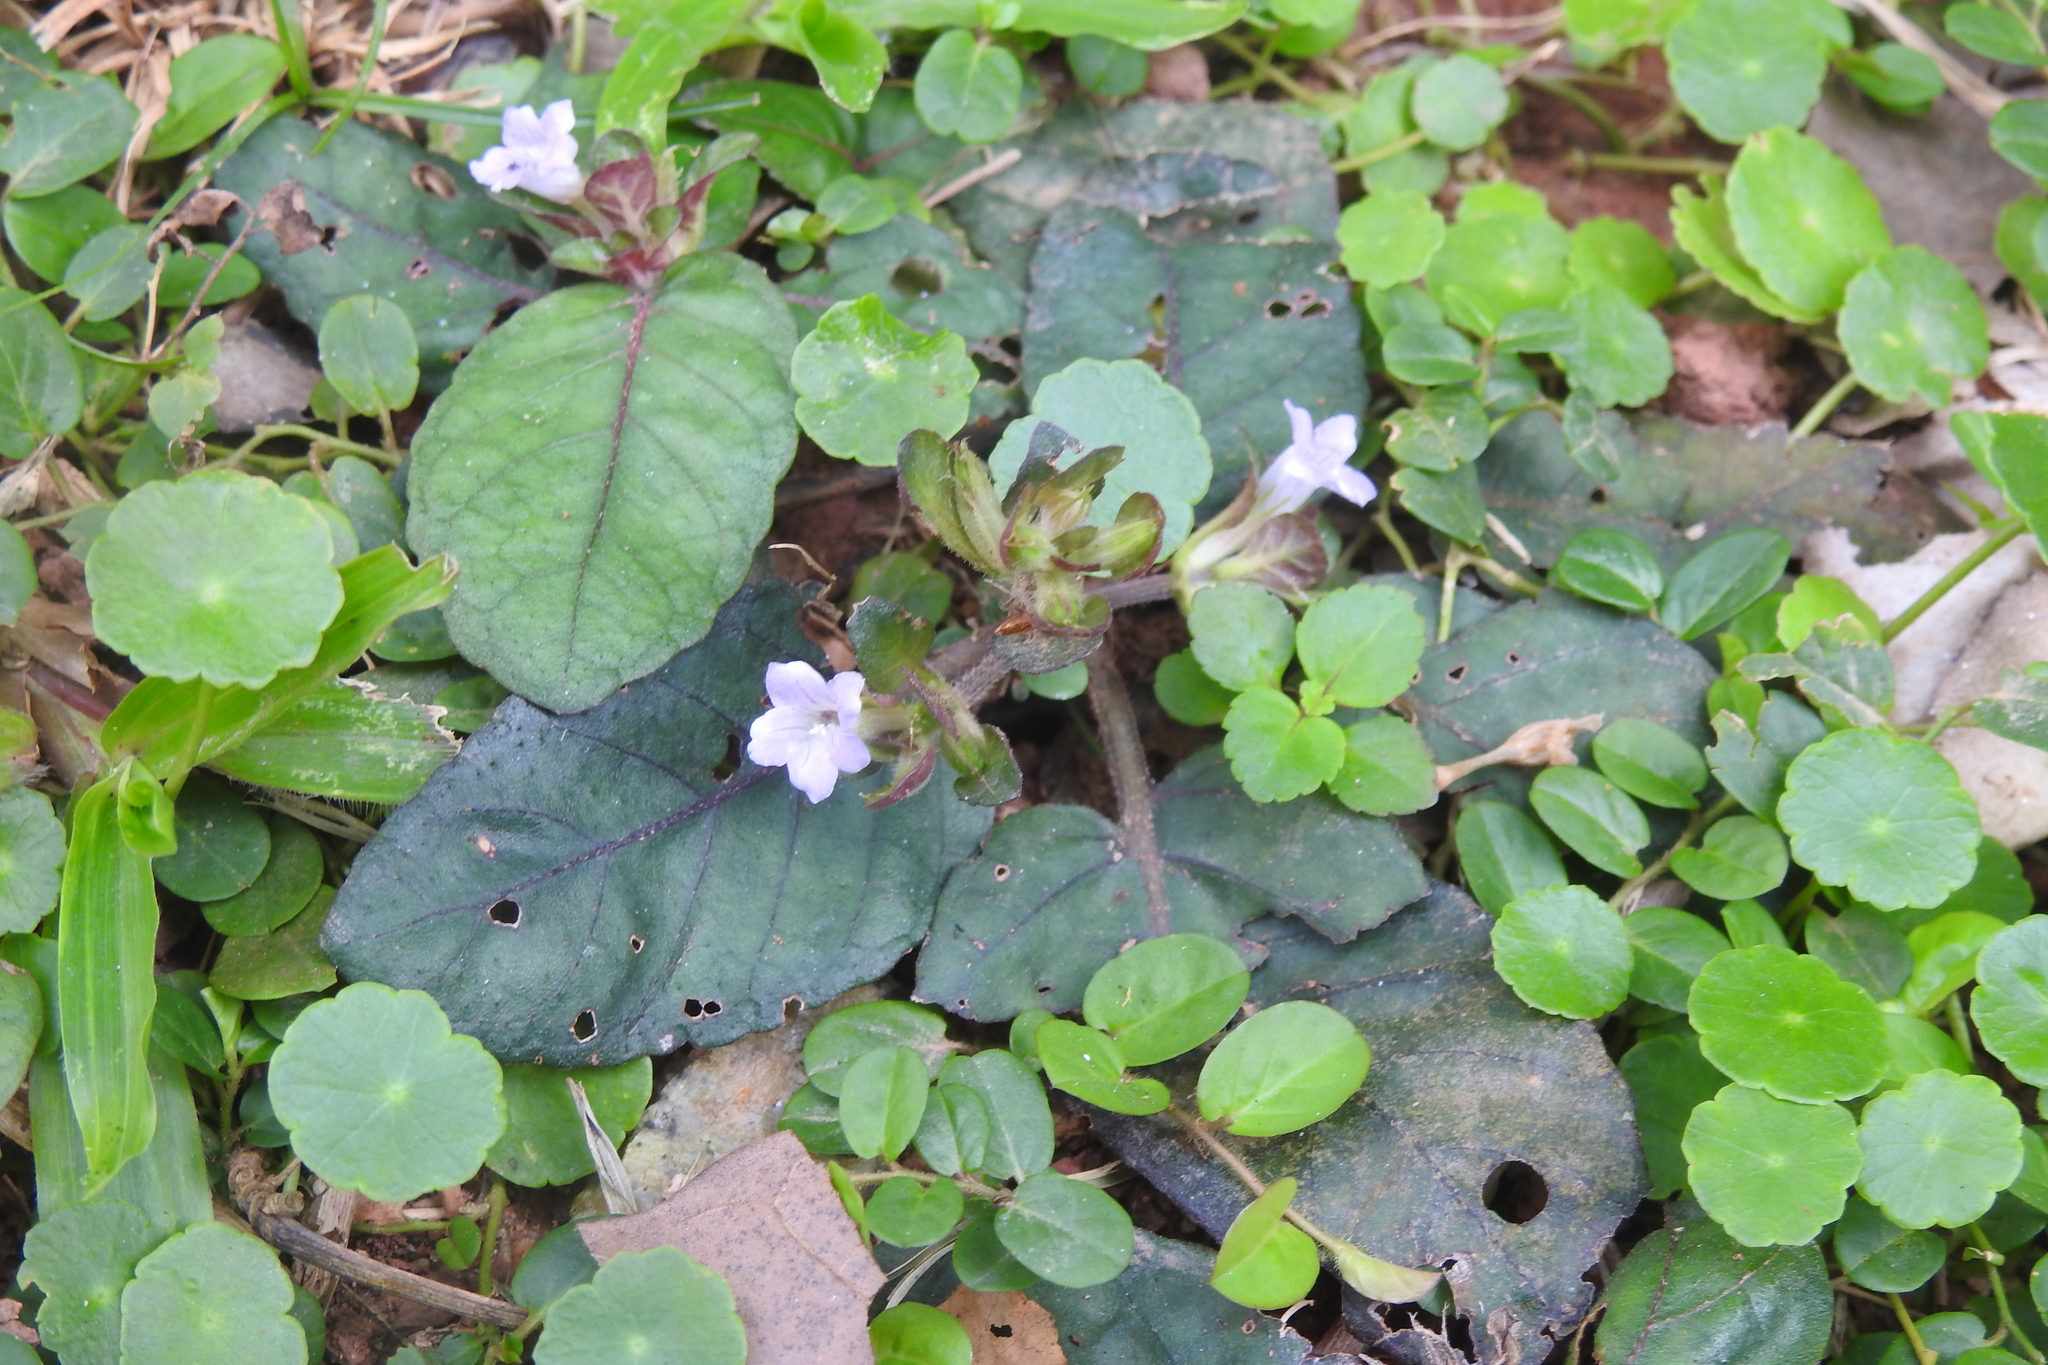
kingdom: Plantae
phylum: Tracheophyta
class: Magnoliopsida
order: Lamiales
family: Acanthaceae
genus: Strobilanthes
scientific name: Strobilanthes reptans
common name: Acanthaceae
